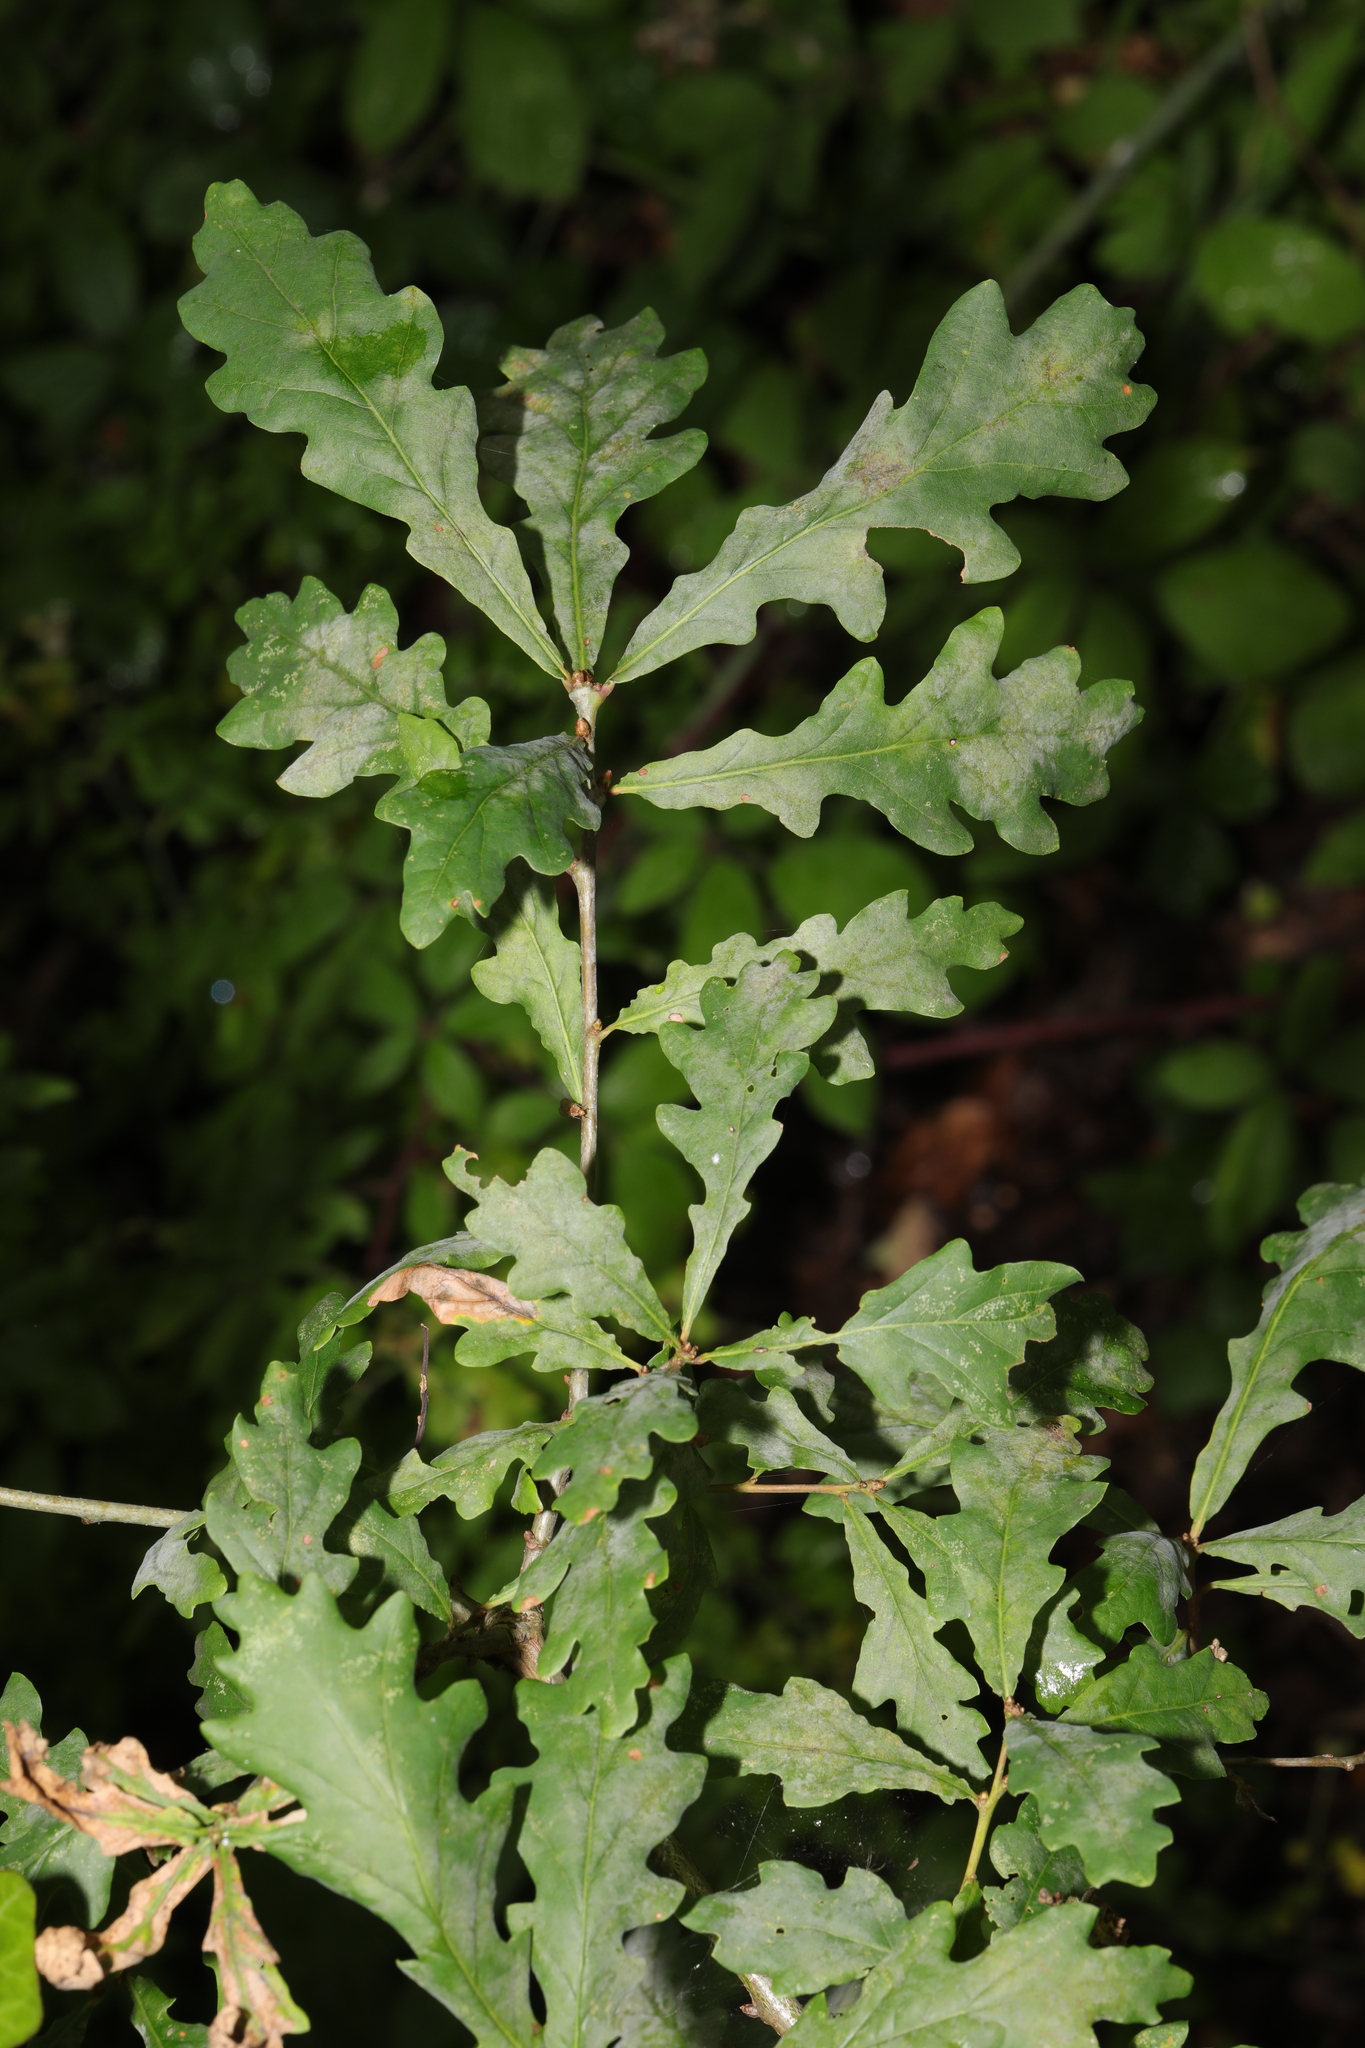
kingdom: Fungi
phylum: Ascomycota
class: Leotiomycetes
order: Helotiales
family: Erysiphaceae
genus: Erysiphe
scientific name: Erysiphe alphitoides
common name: Oak mildew
